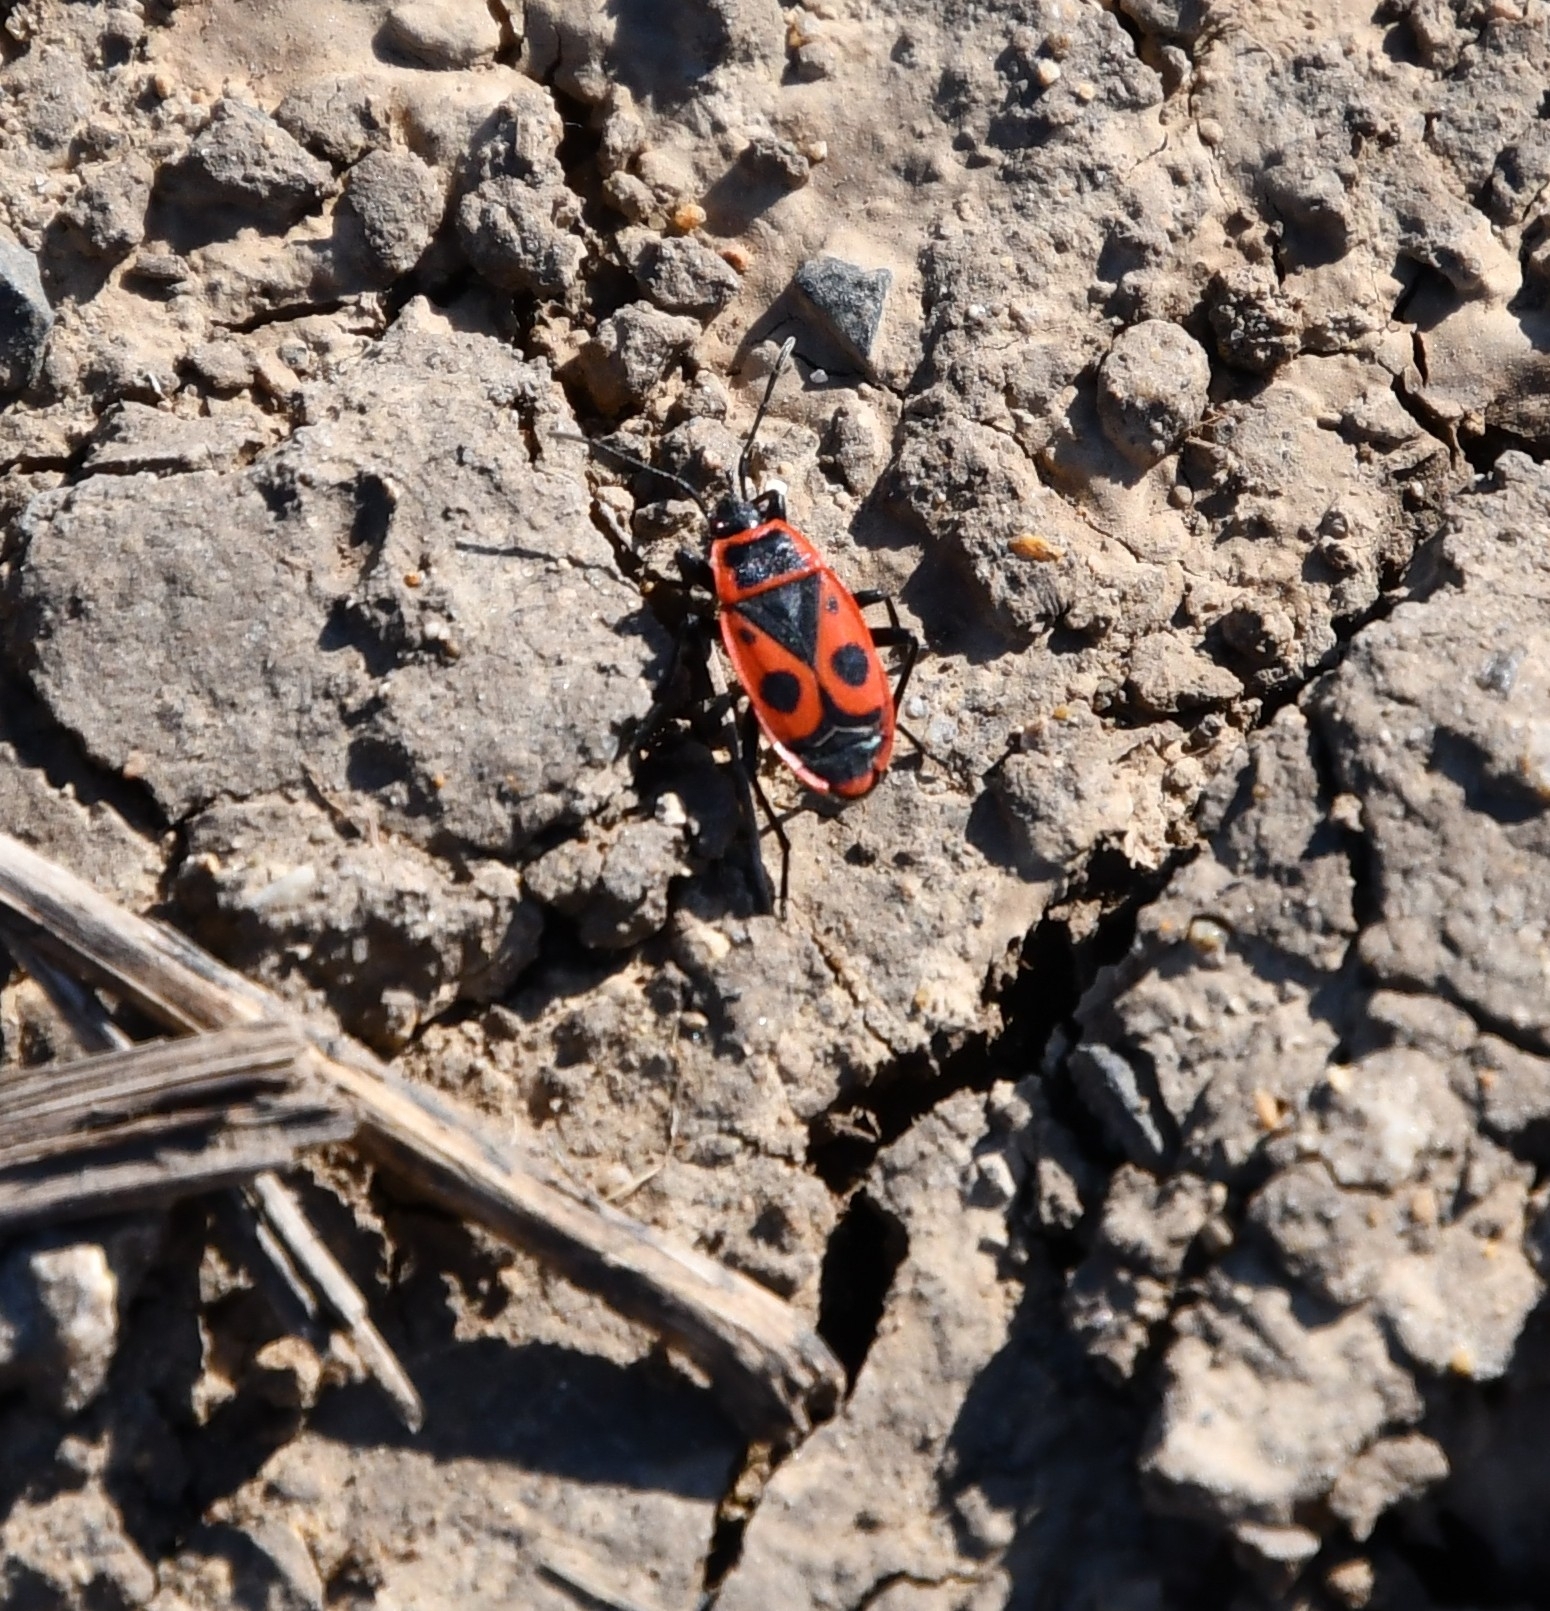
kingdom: Animalia
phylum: Arthropoda
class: Insecta
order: Hemiptera
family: Pyrrhocoridae
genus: Pyrrhocoris
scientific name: Pyrrhocoris apterus
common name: Firebug
